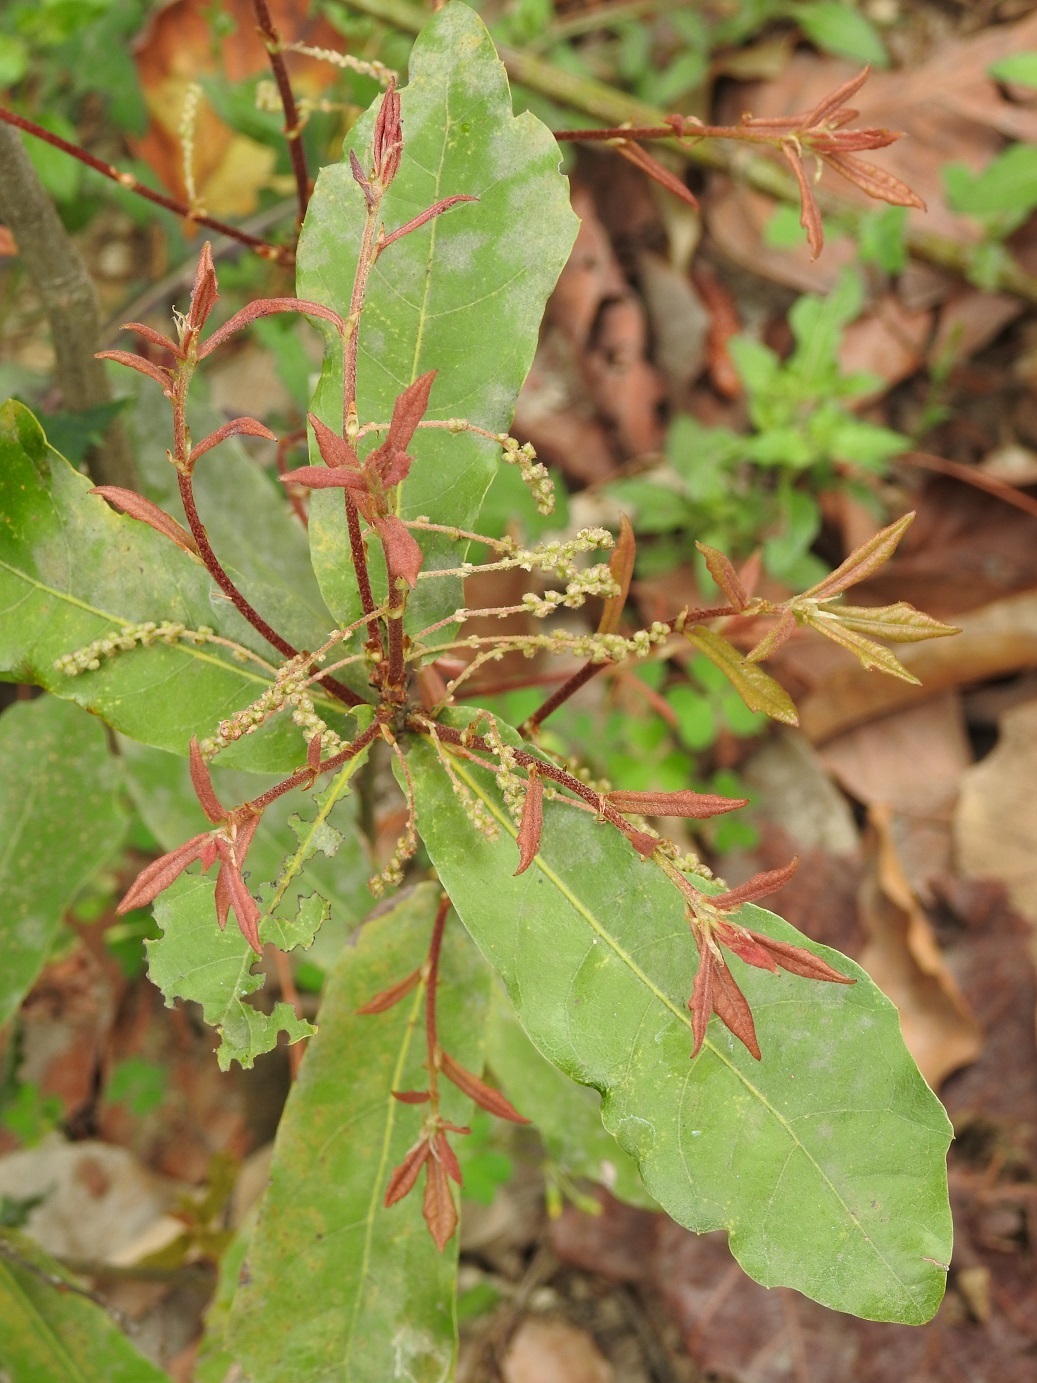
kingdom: Plantae
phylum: Tracheophyta
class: Magnoliopsida
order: Fagales
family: Fagaceae
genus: Quercus
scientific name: Quercus sebifera
